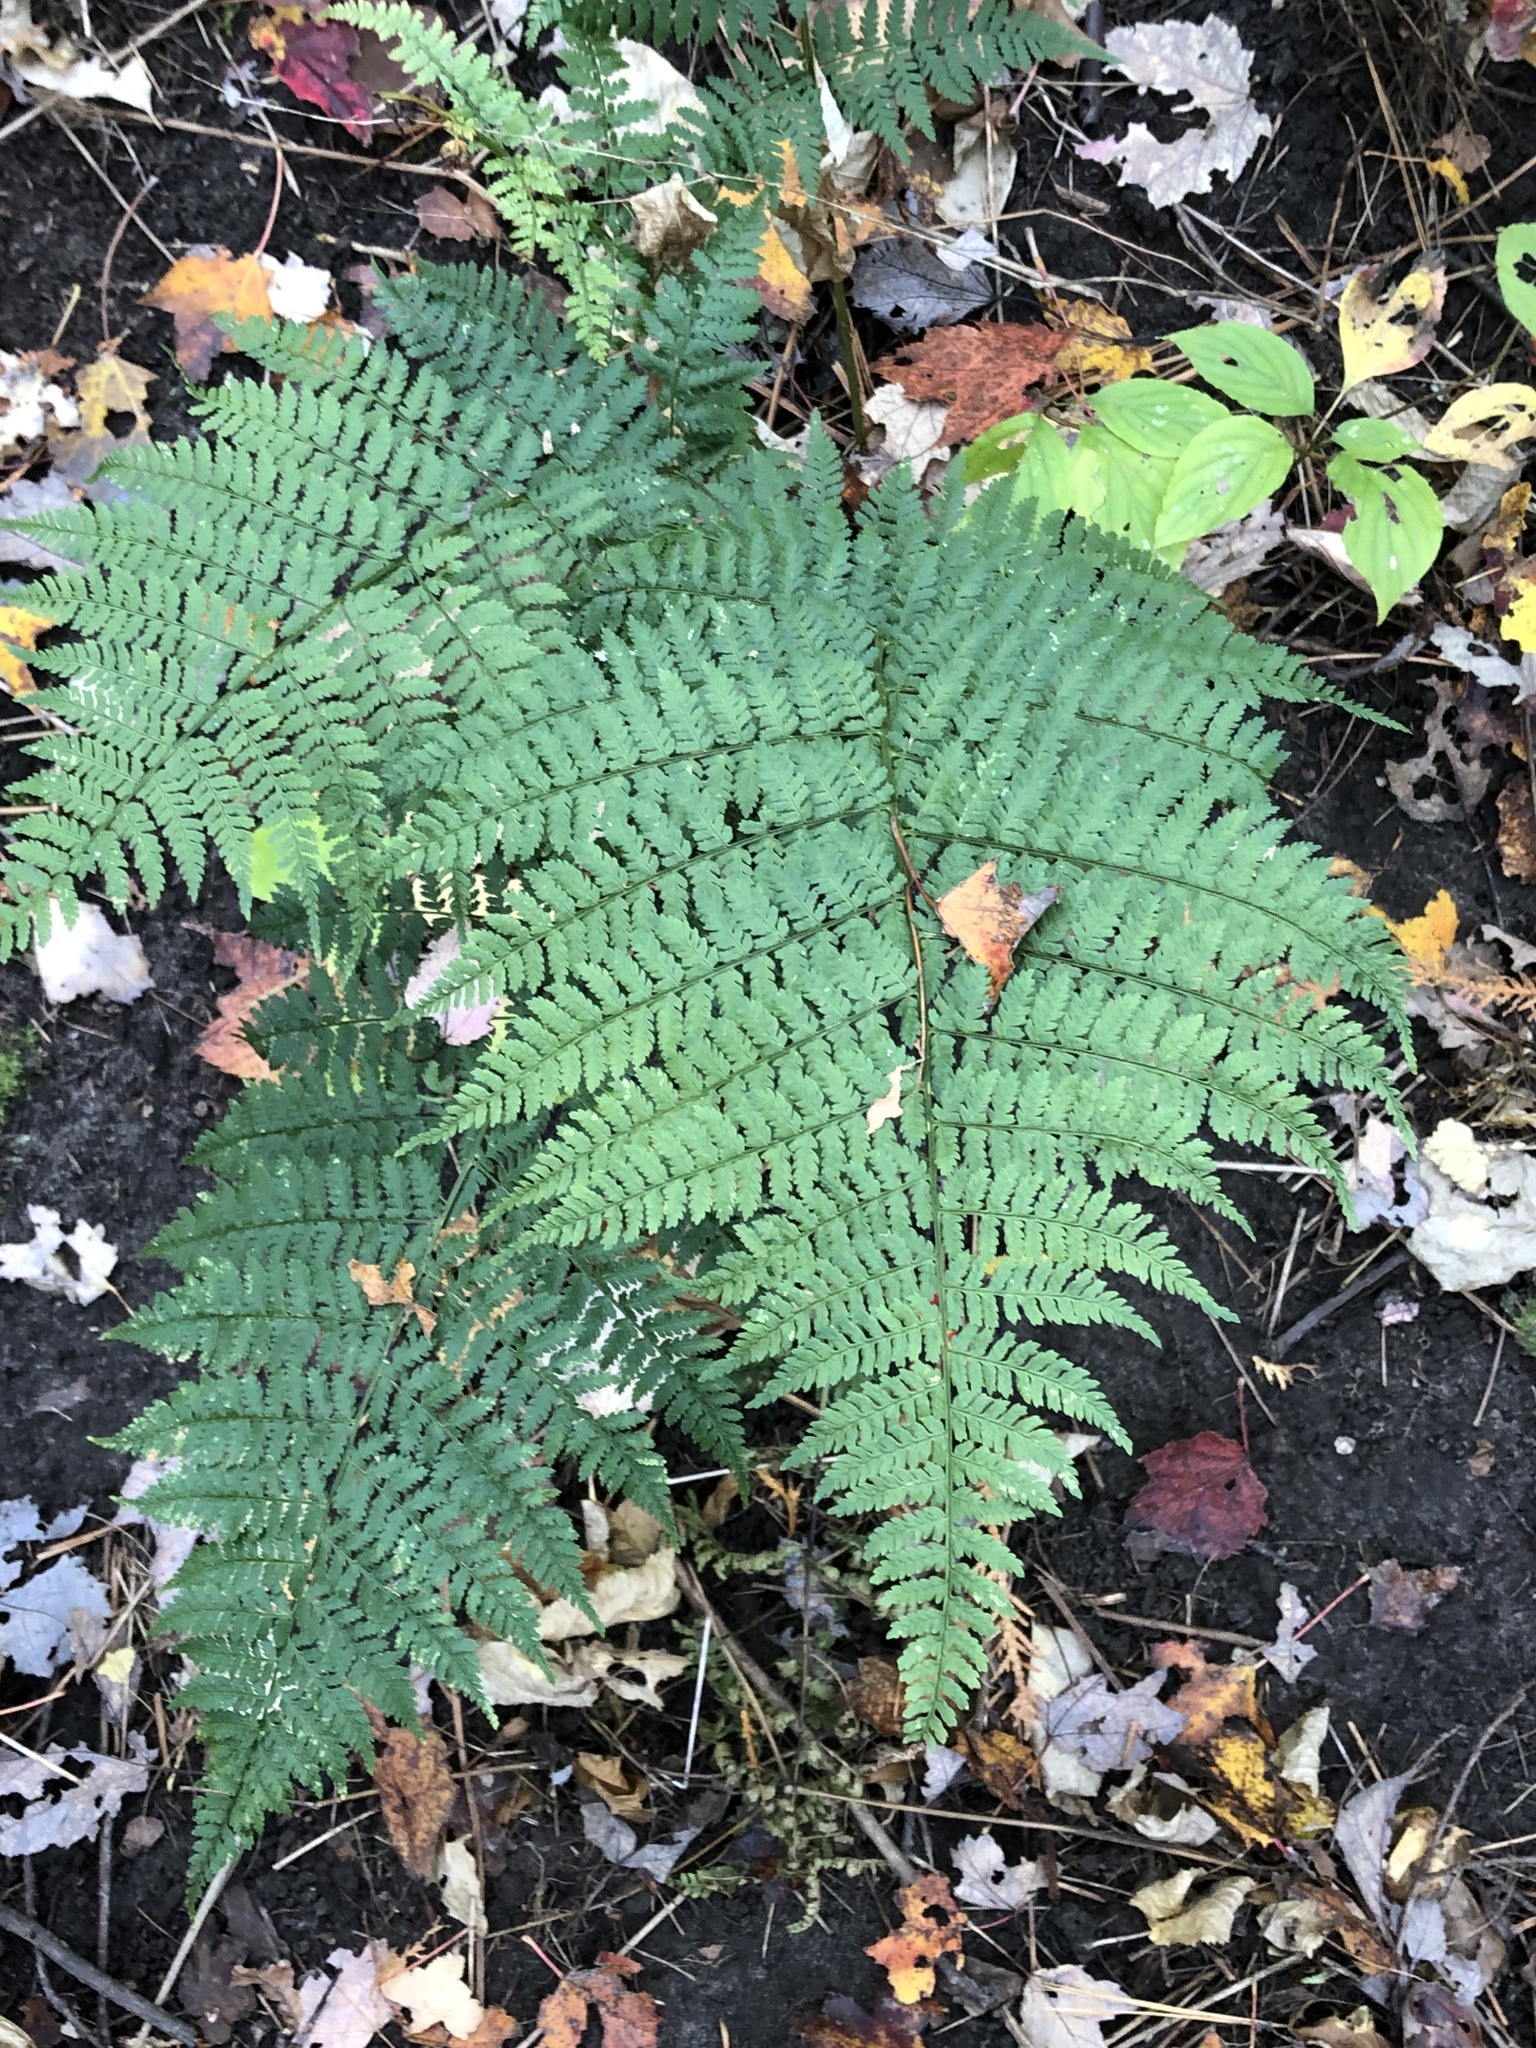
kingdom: Plantae
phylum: Tracheophyta
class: Polypodiopsida
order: Polypodiales
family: Dryopteridaceae
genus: Dryopteris
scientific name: Dryopteris intermedia
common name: Evergreen wood fern
